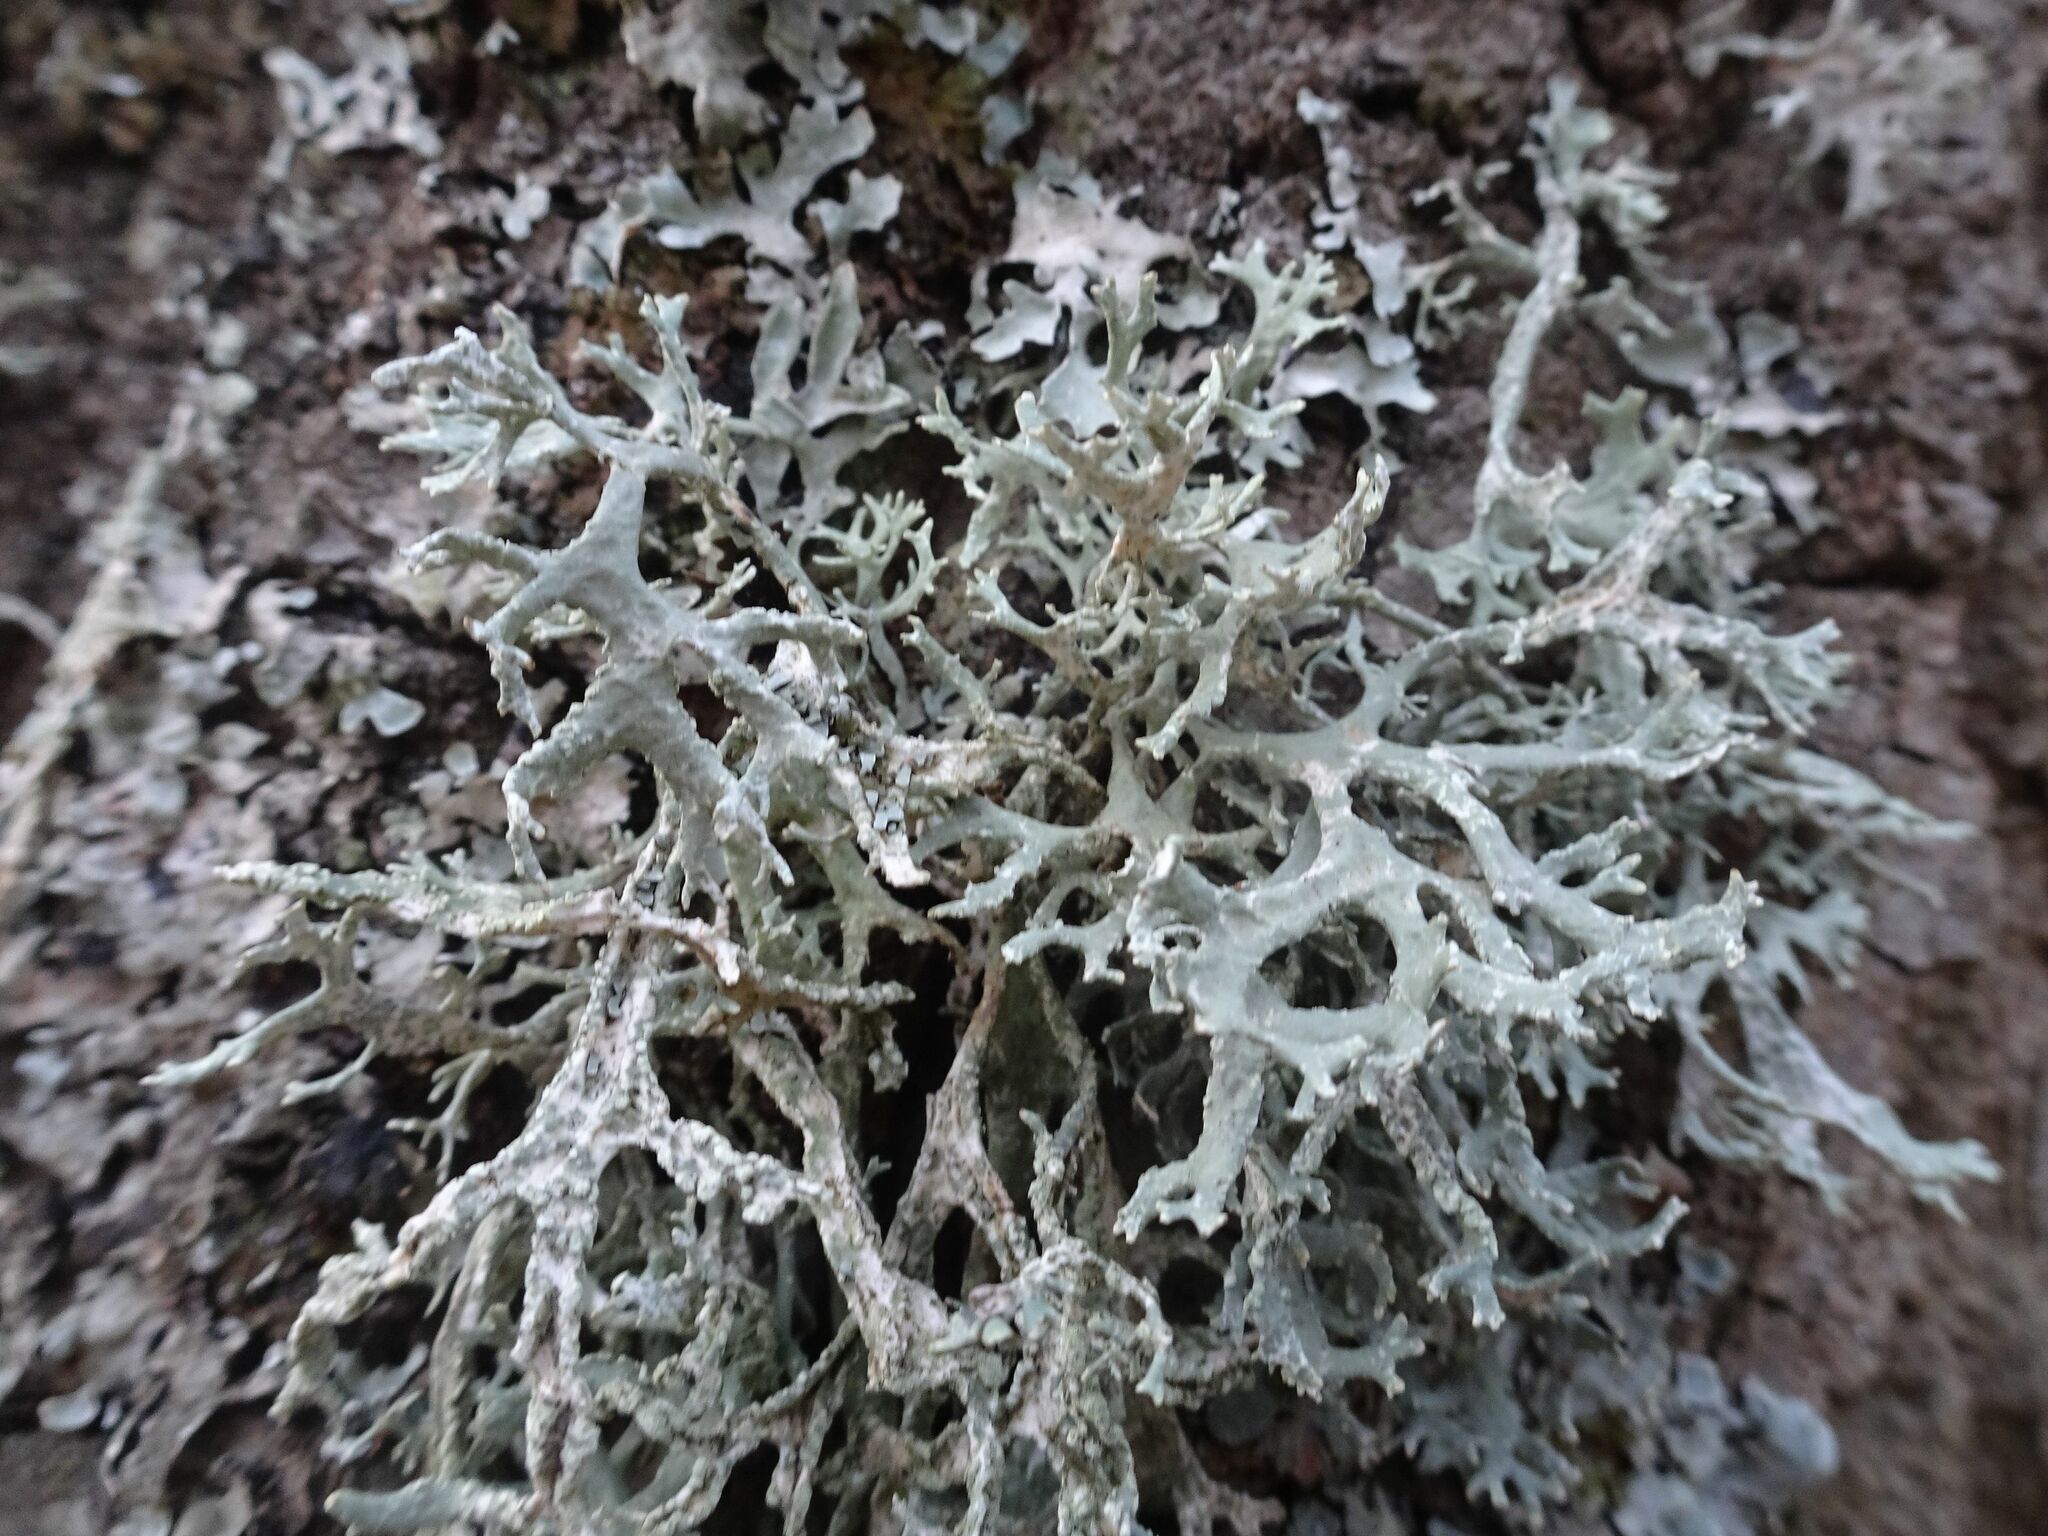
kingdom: Fungi
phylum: Ascomycota
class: Lecanoromycetes
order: Lecanorales
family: Parmeliaceae
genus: Evernia
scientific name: Evernia prunastri
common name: Oak moss
